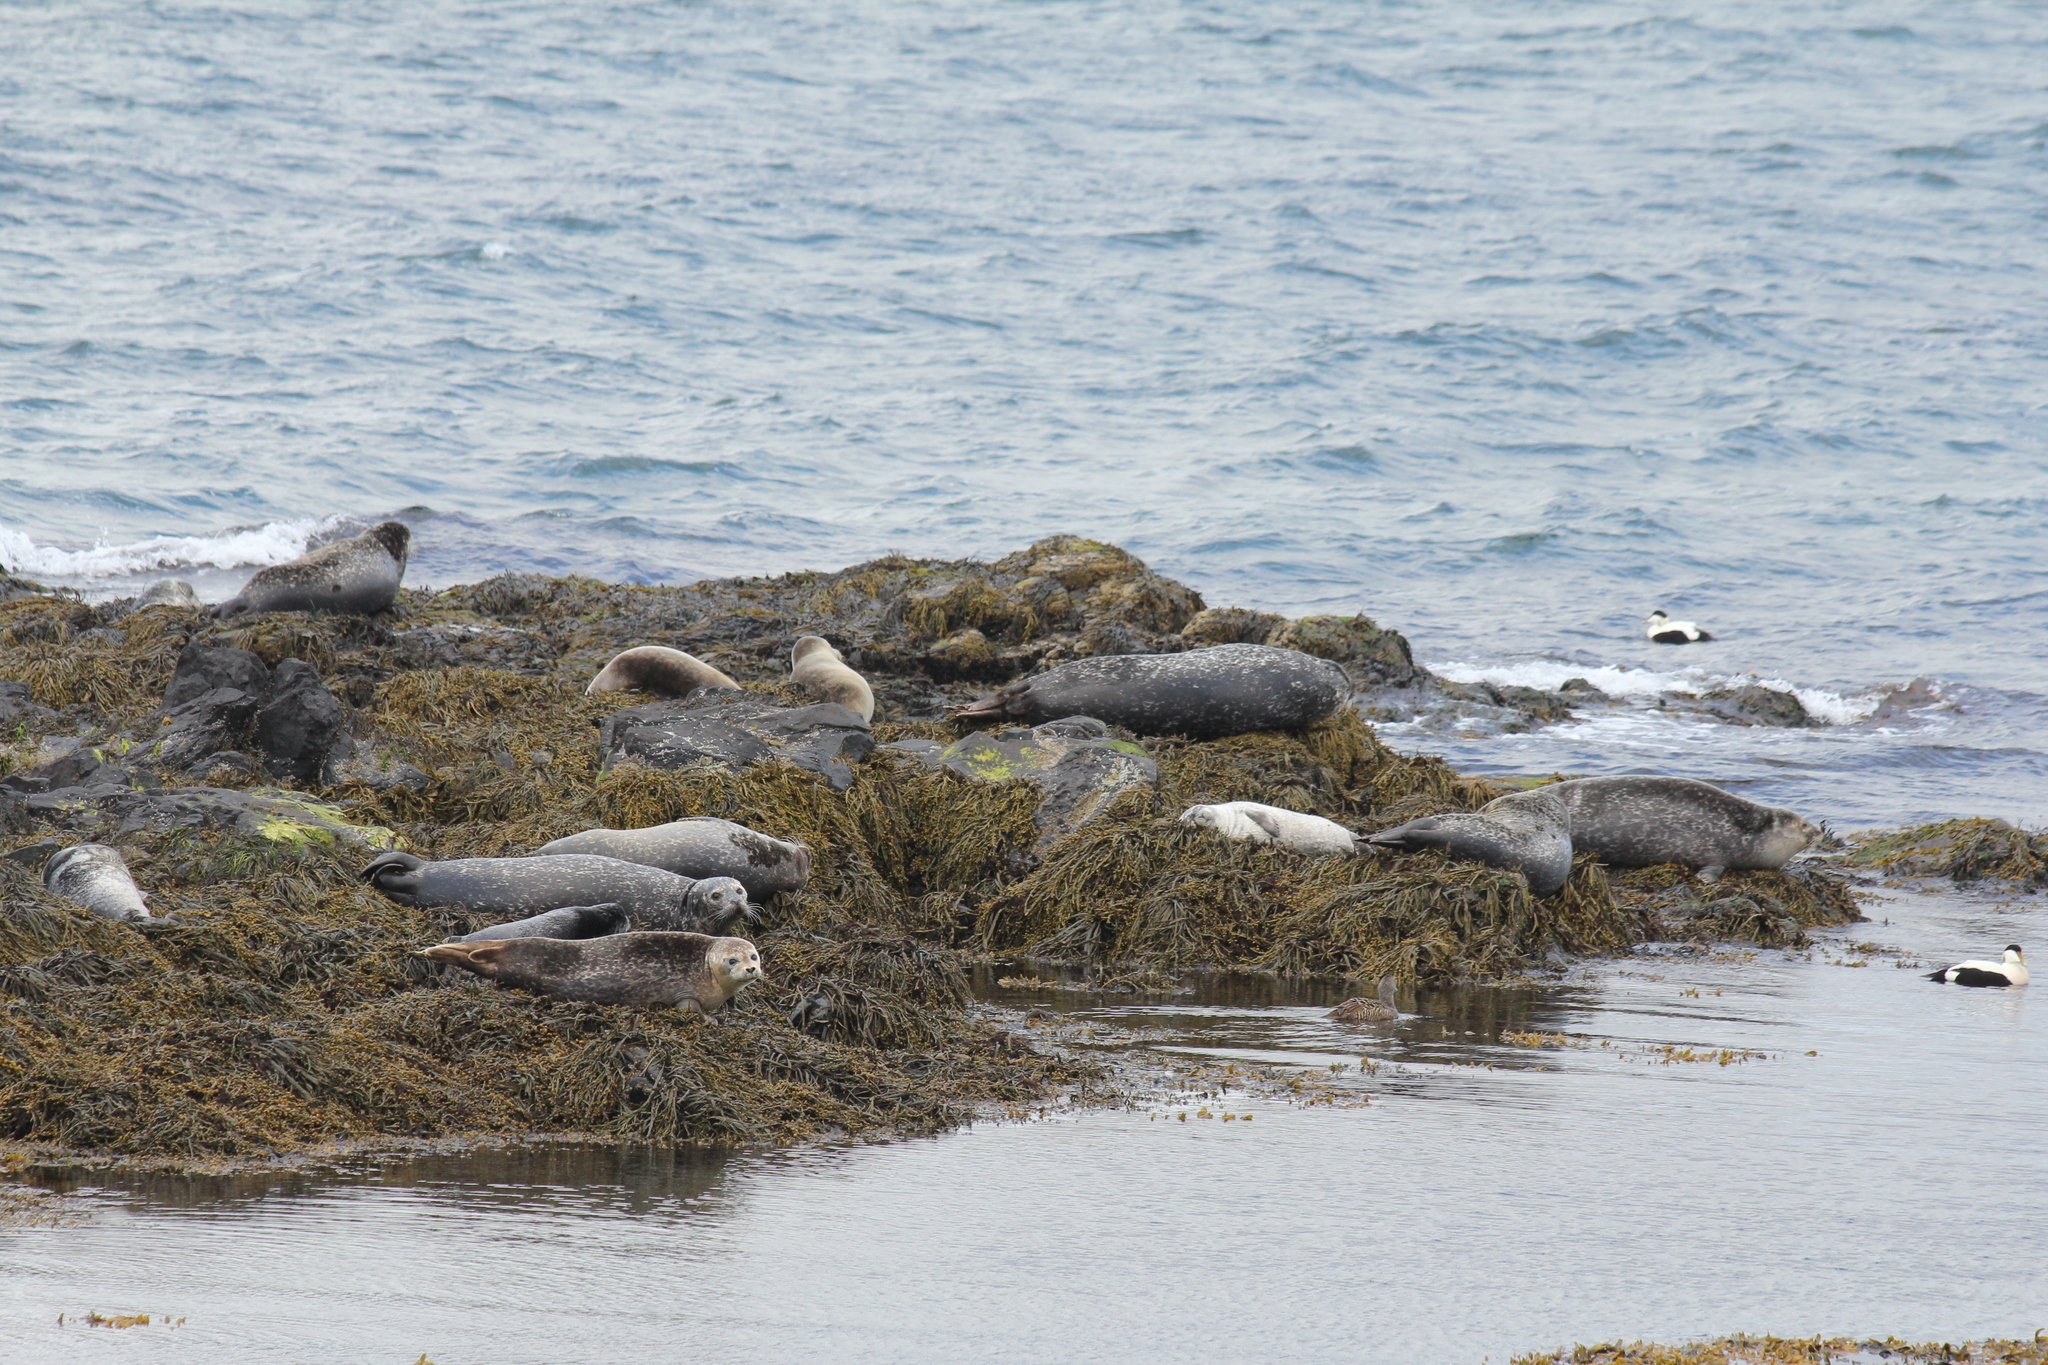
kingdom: Animalia
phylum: Chordata
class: Mammalia
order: Carnivora
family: Phocidae
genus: Phoca
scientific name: Phoca vitulina
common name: Harbor seal
